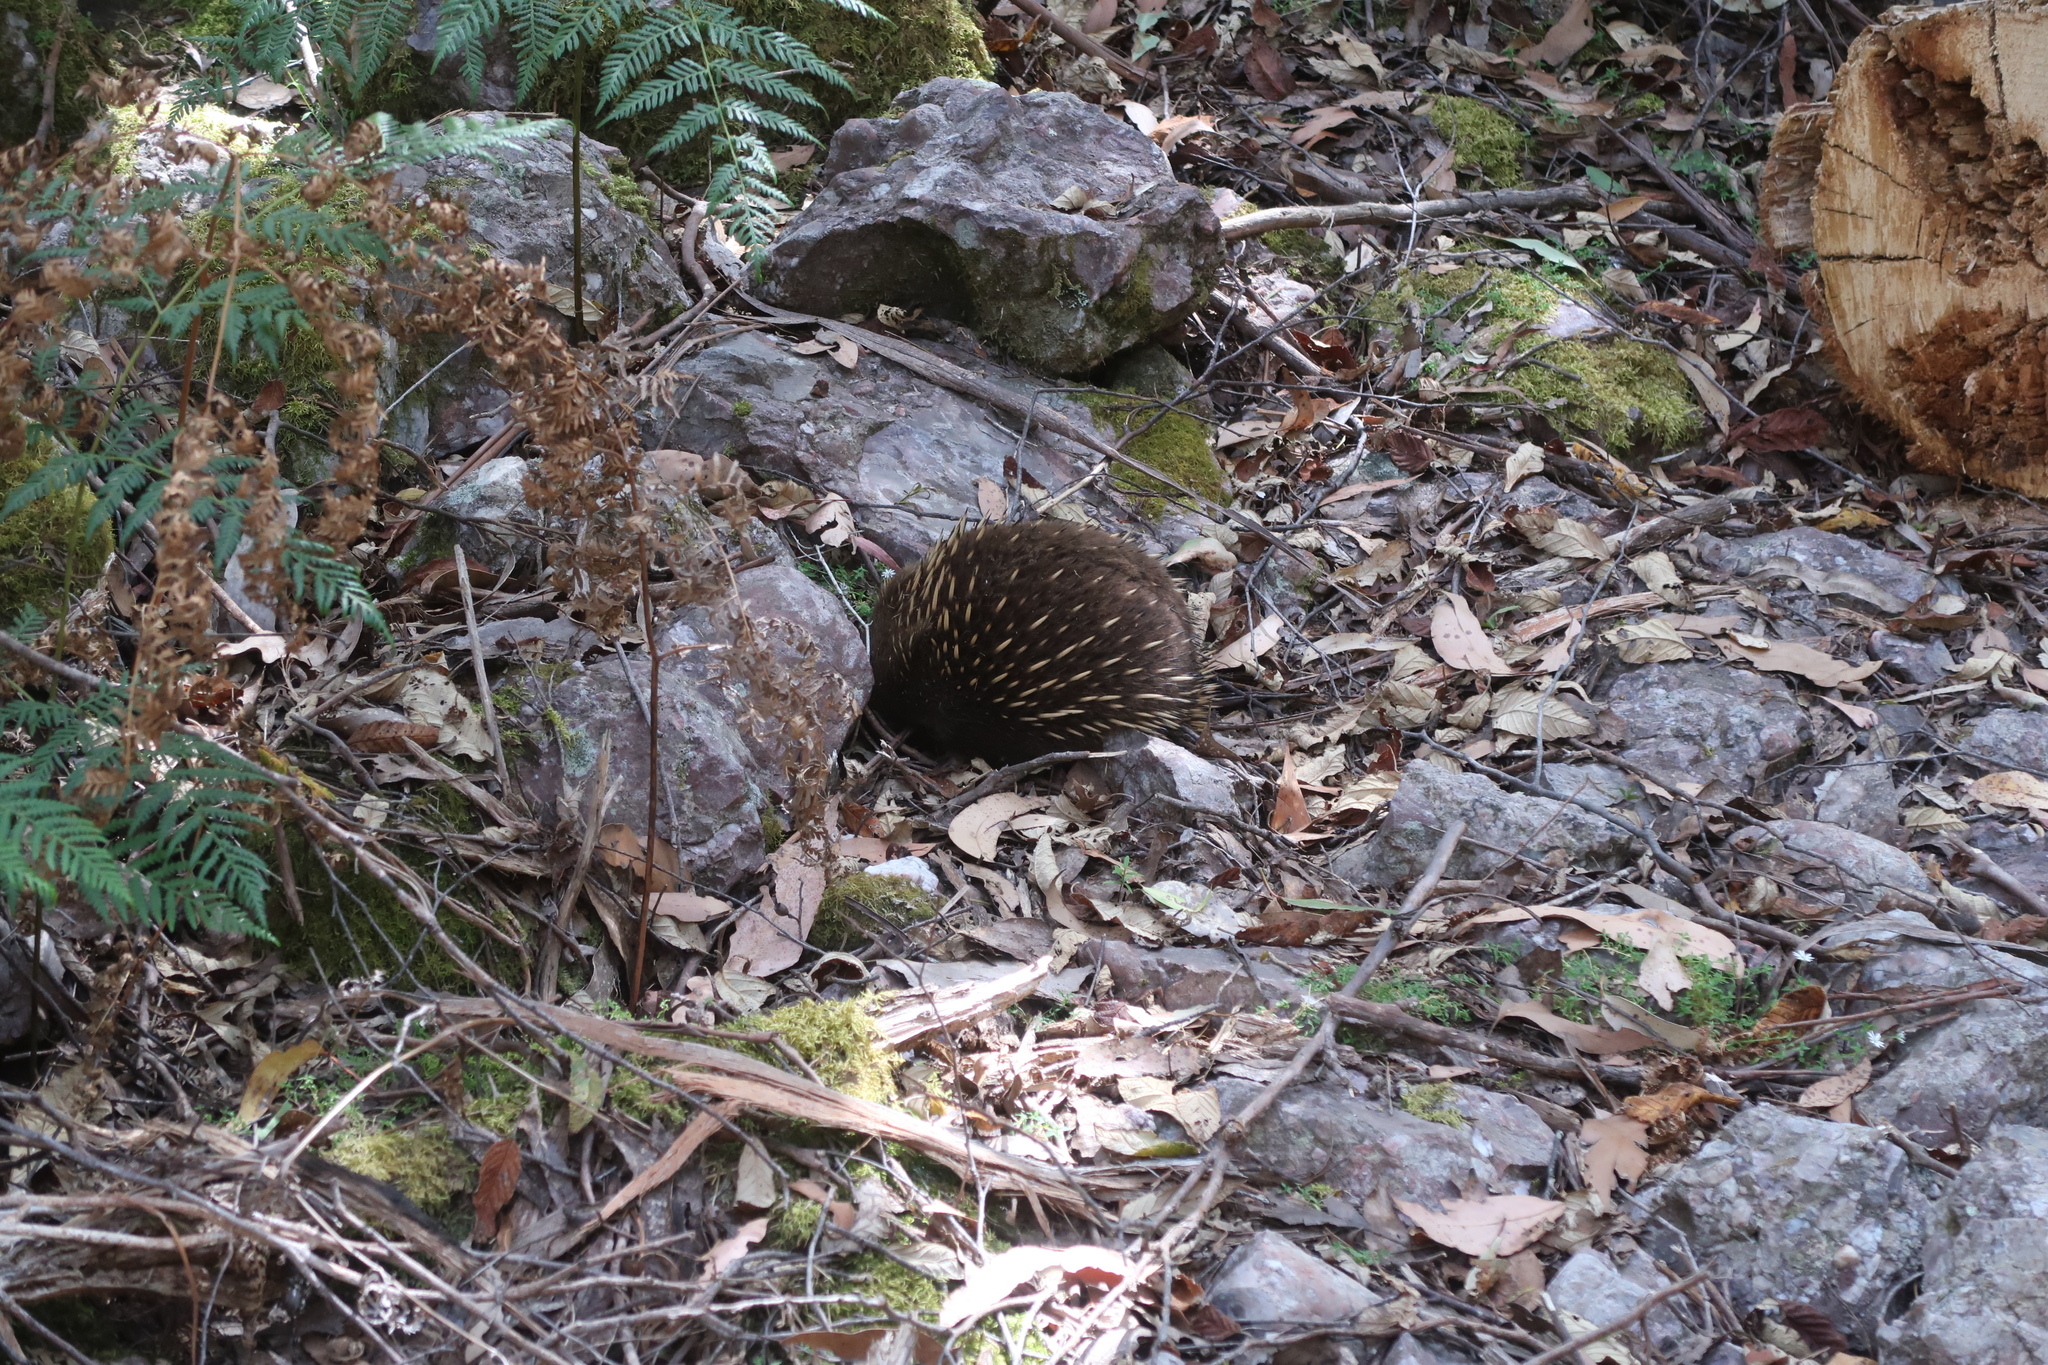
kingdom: Animalia
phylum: Chordata
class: Mammalia
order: Monotremata
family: Tachyglossidae
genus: Tachyglossus
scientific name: Tachyglossus aculeatus
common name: Short-beaked echidna
